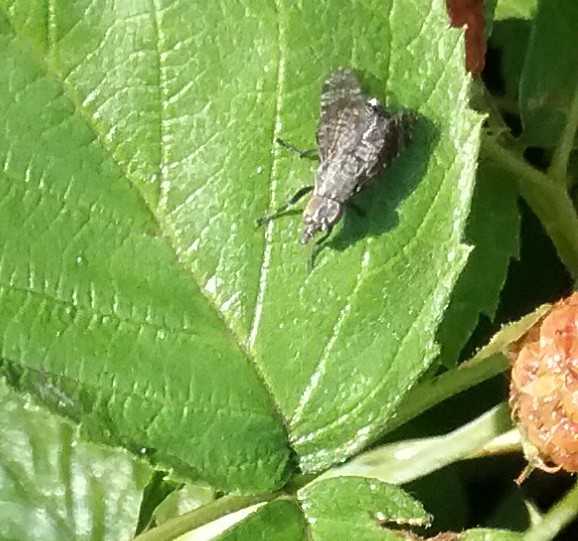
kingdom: Animalia
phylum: Arthropoda
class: Insecta
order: Diptera
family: Platystomatidae
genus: Platystoma
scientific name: Platystoma seminationis
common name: Fly
